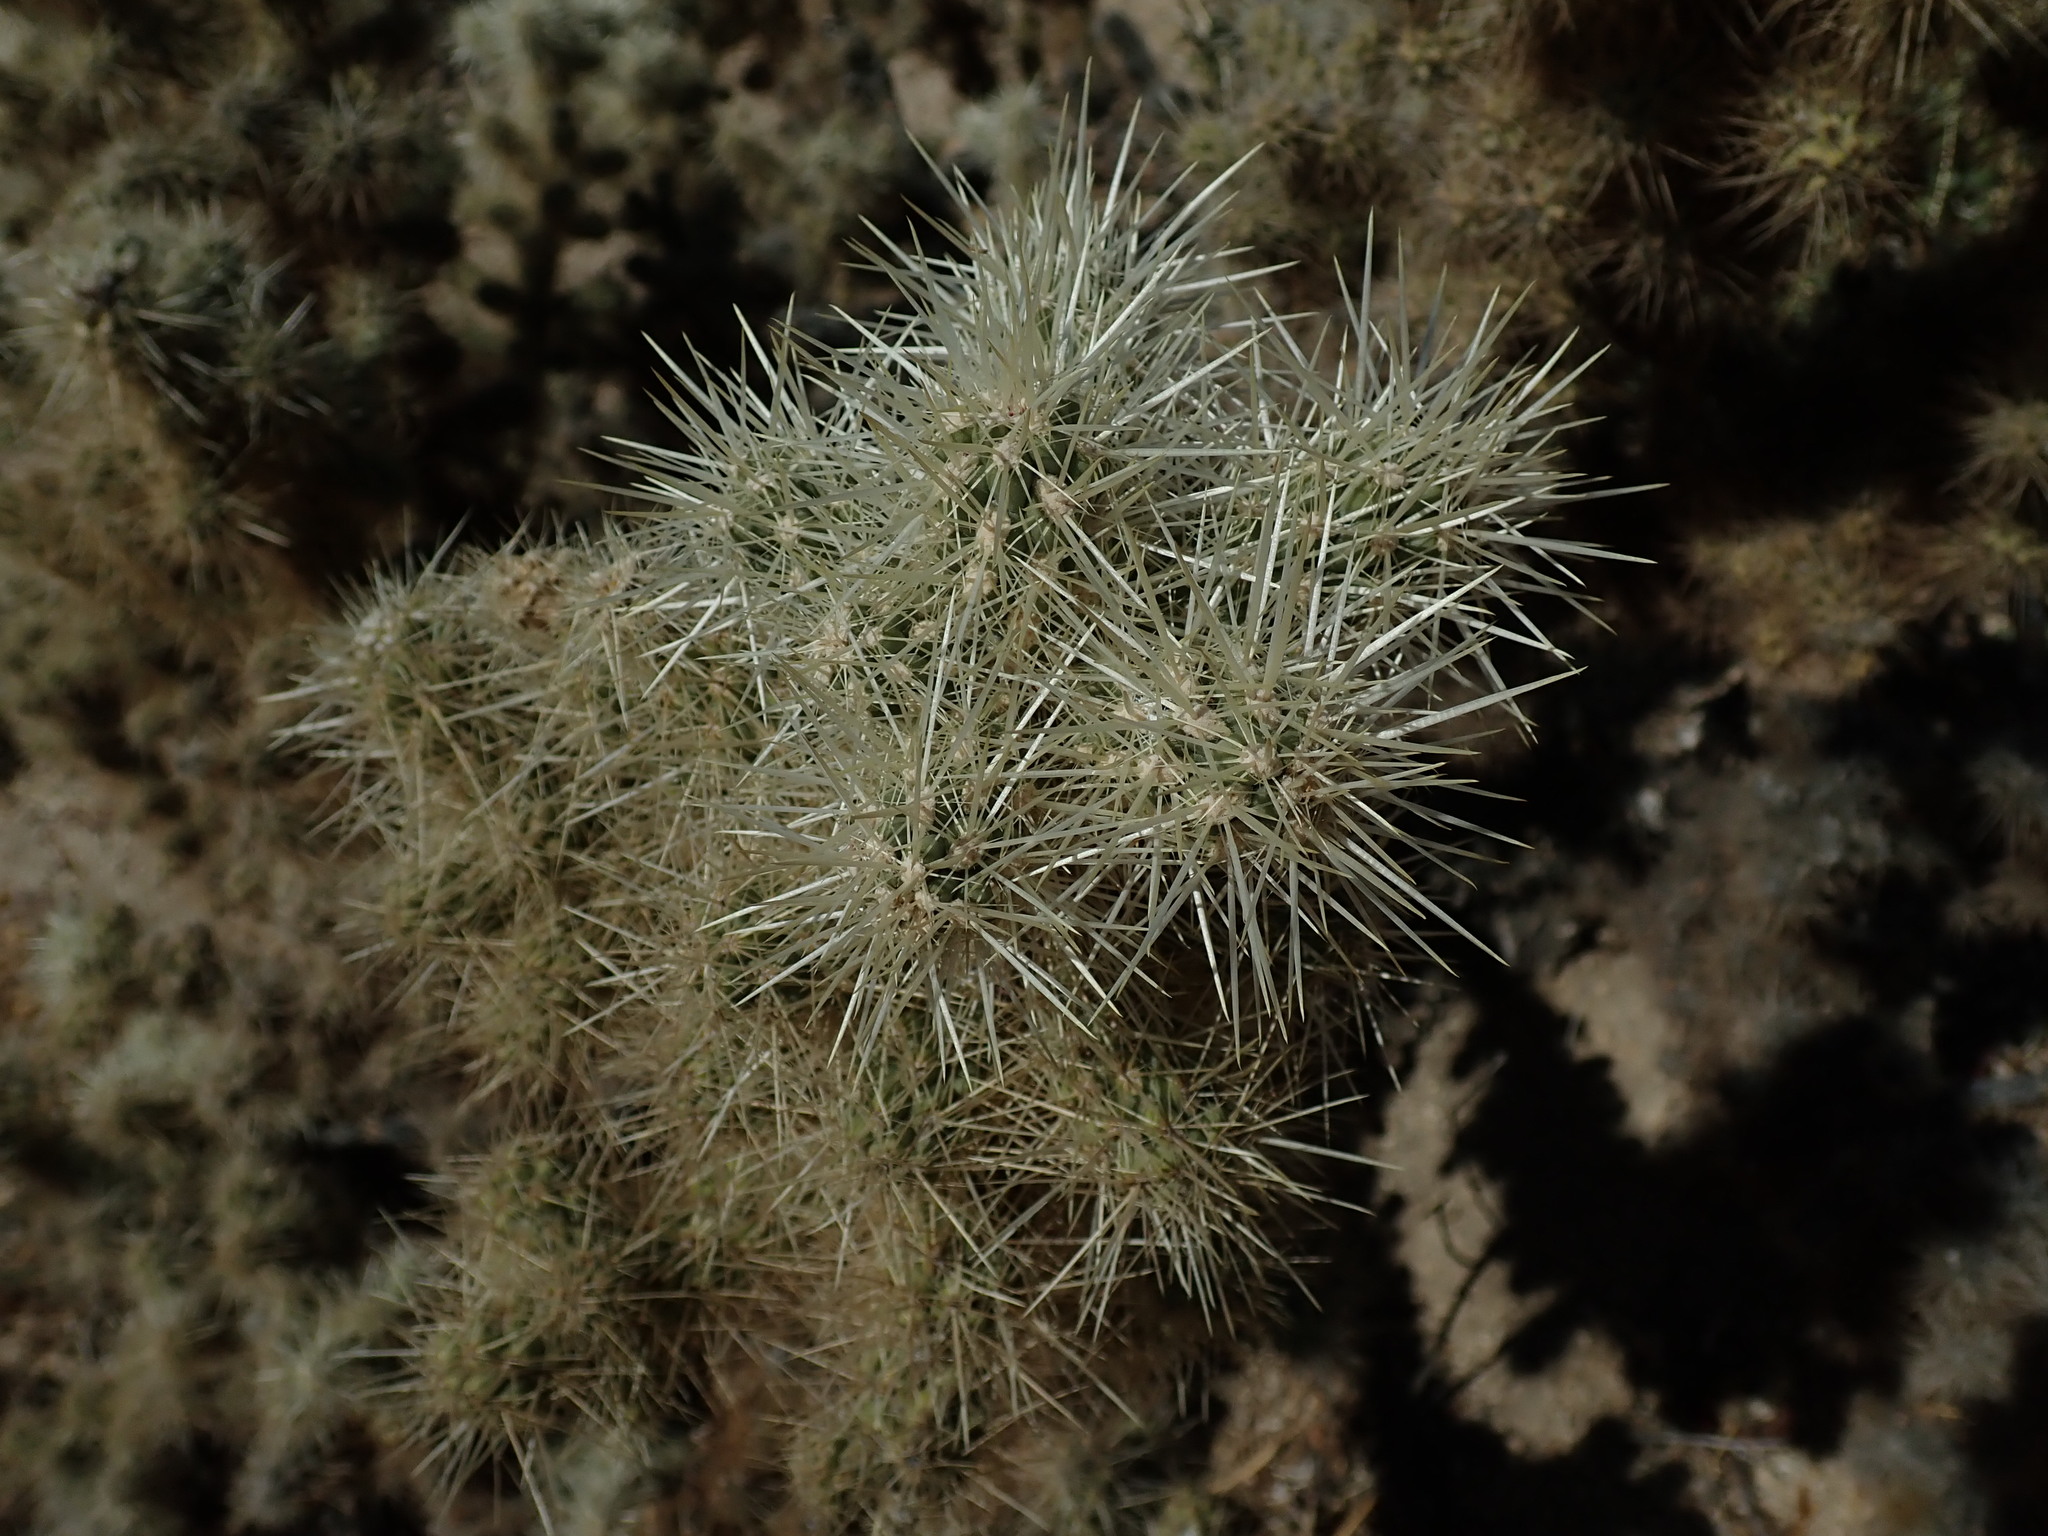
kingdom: Plantae
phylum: Tracheophyta
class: Magnoliopsida
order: Caryophyllales
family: Cactaceae
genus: Cylindropuntia
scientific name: Cylindropuntia fosbergii
